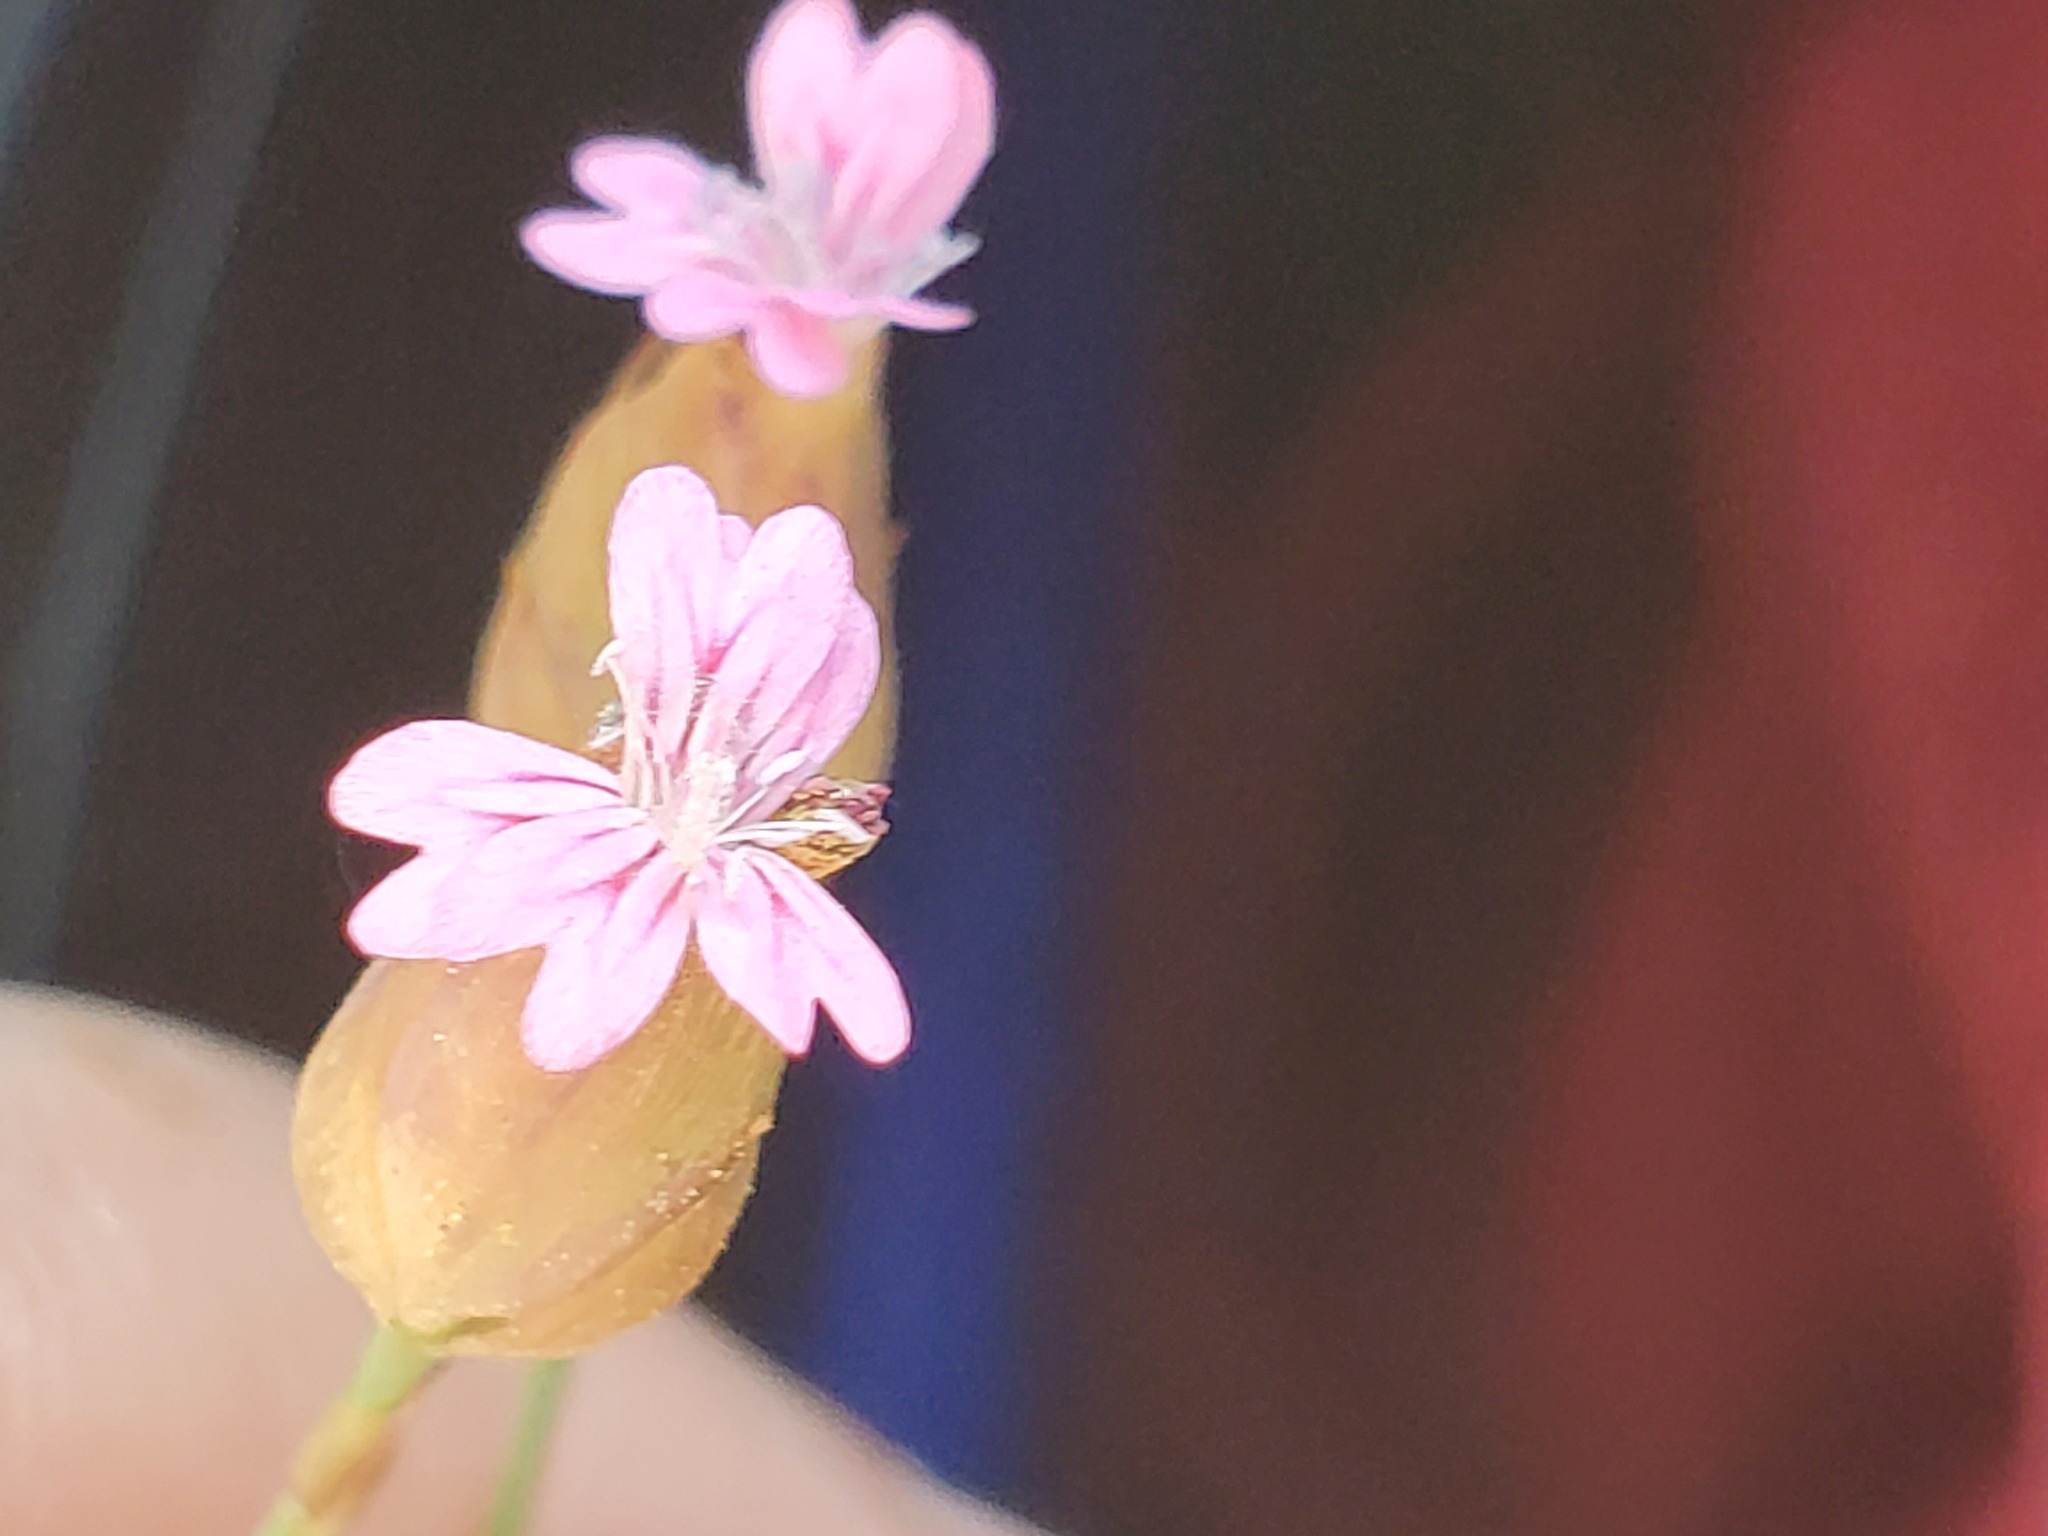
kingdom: Plantae
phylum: Tracheophyta
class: Magnoliopsida
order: Caryophyllales
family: Caryophyllaceae
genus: Petrorhagia
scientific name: Petrorhagia dubia
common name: Hairypink
